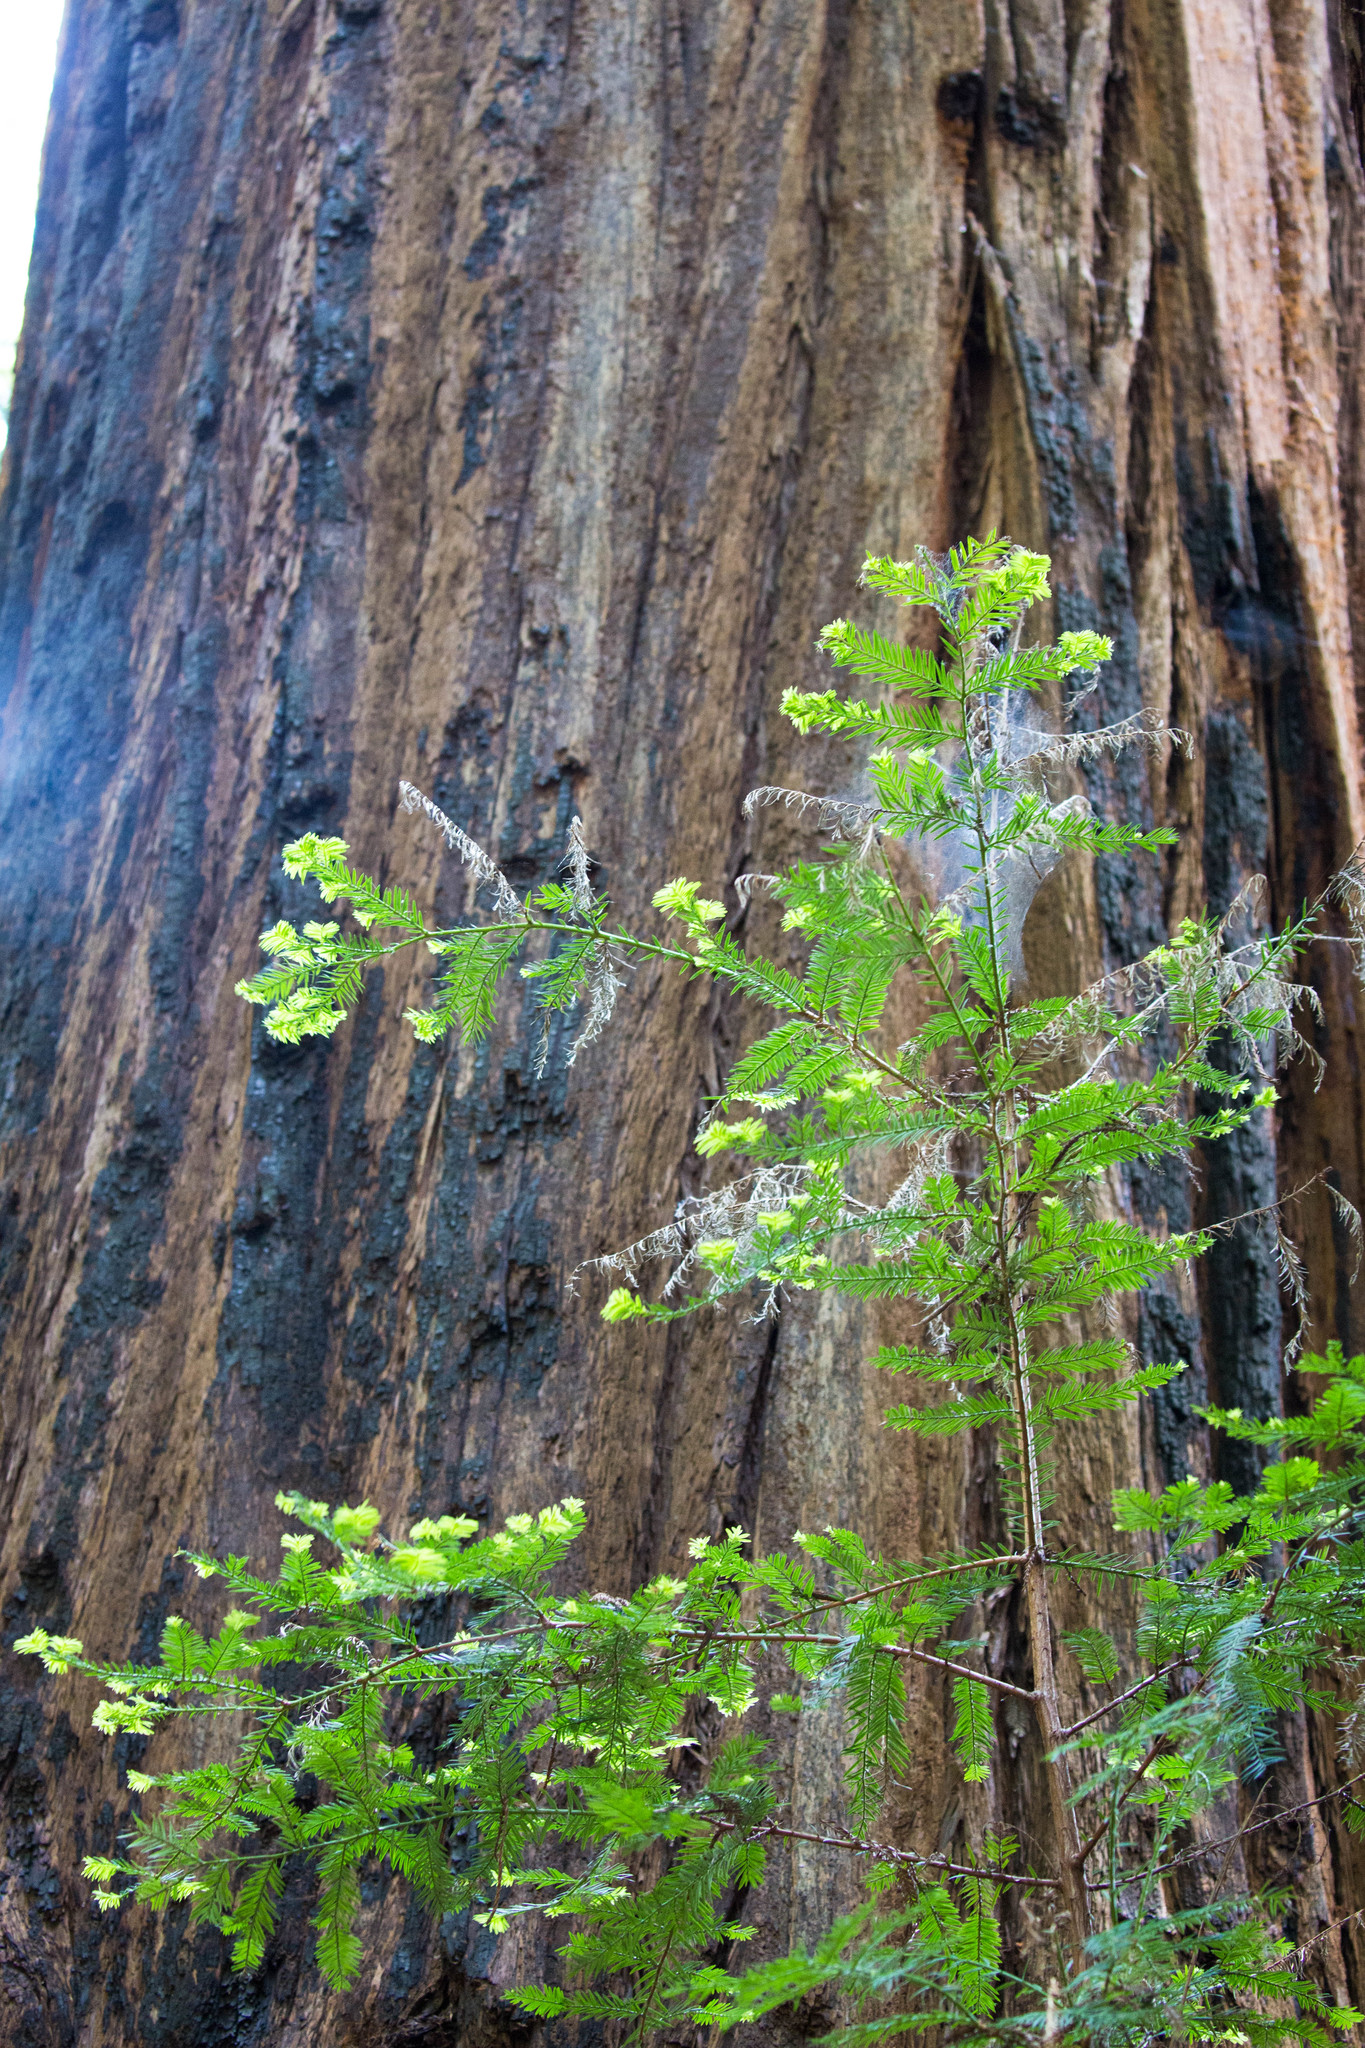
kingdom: Plantae
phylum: Tracheophyta
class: Pinopsida
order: Pinales
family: Cupressaceae
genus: Sequoia
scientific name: Sequoia sempervirens
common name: Coast redwood
